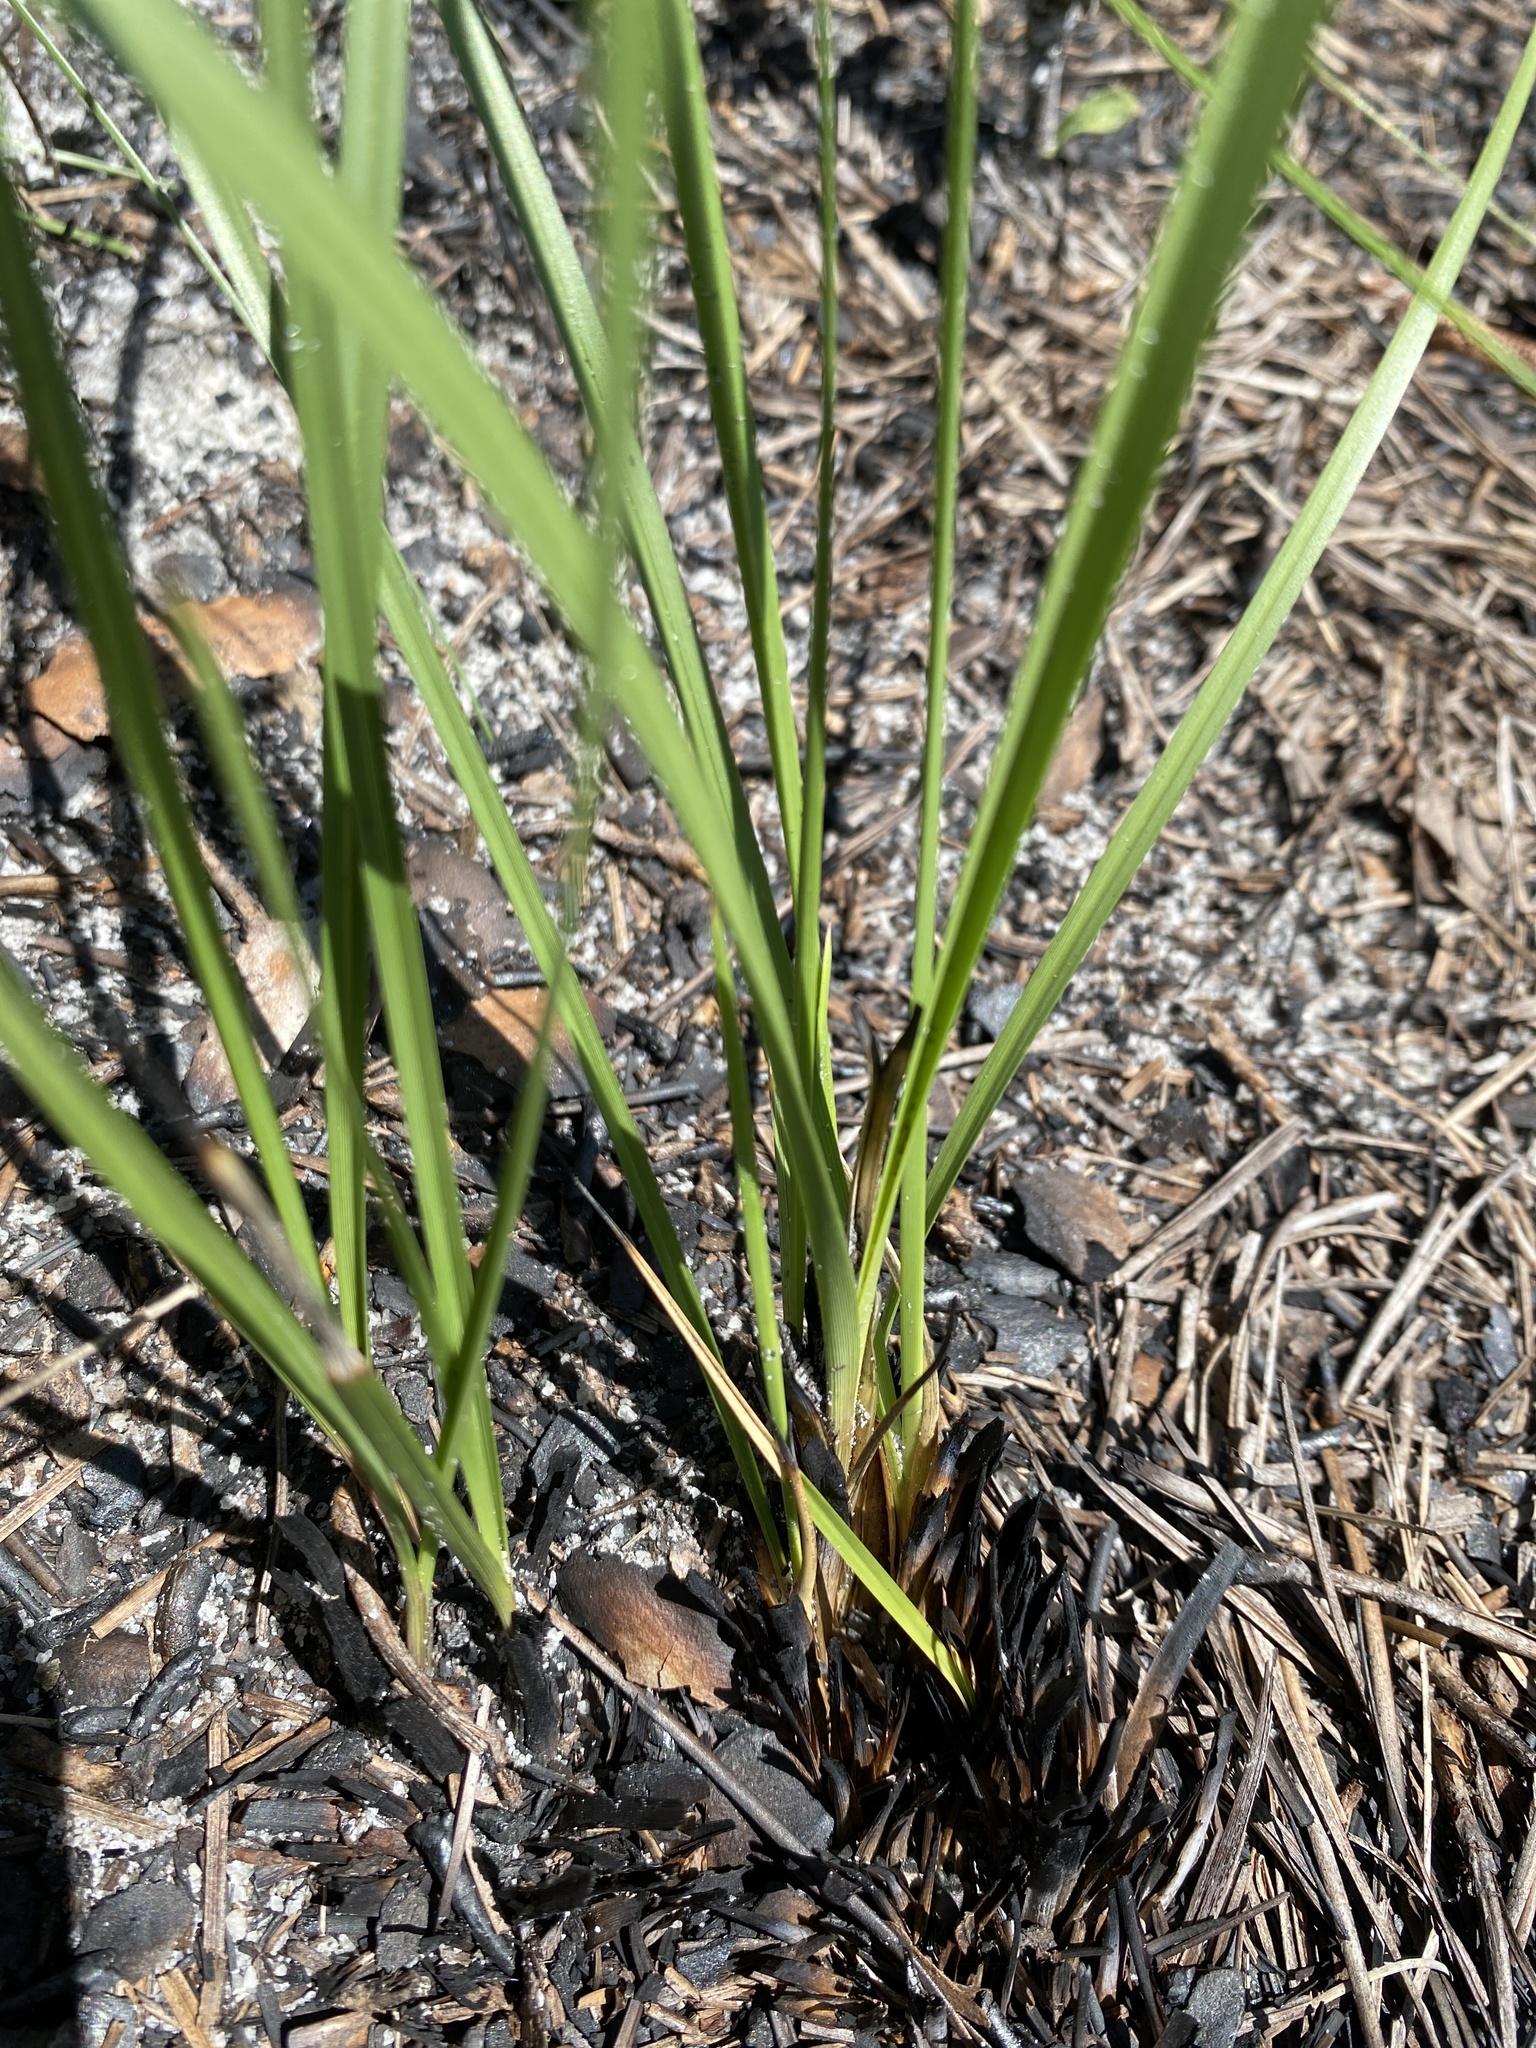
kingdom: Plantae
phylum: Tracheophyta
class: Liliopsida
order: Poales
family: Poaceae
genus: Sporobolus
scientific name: Sporobolus floridanus
